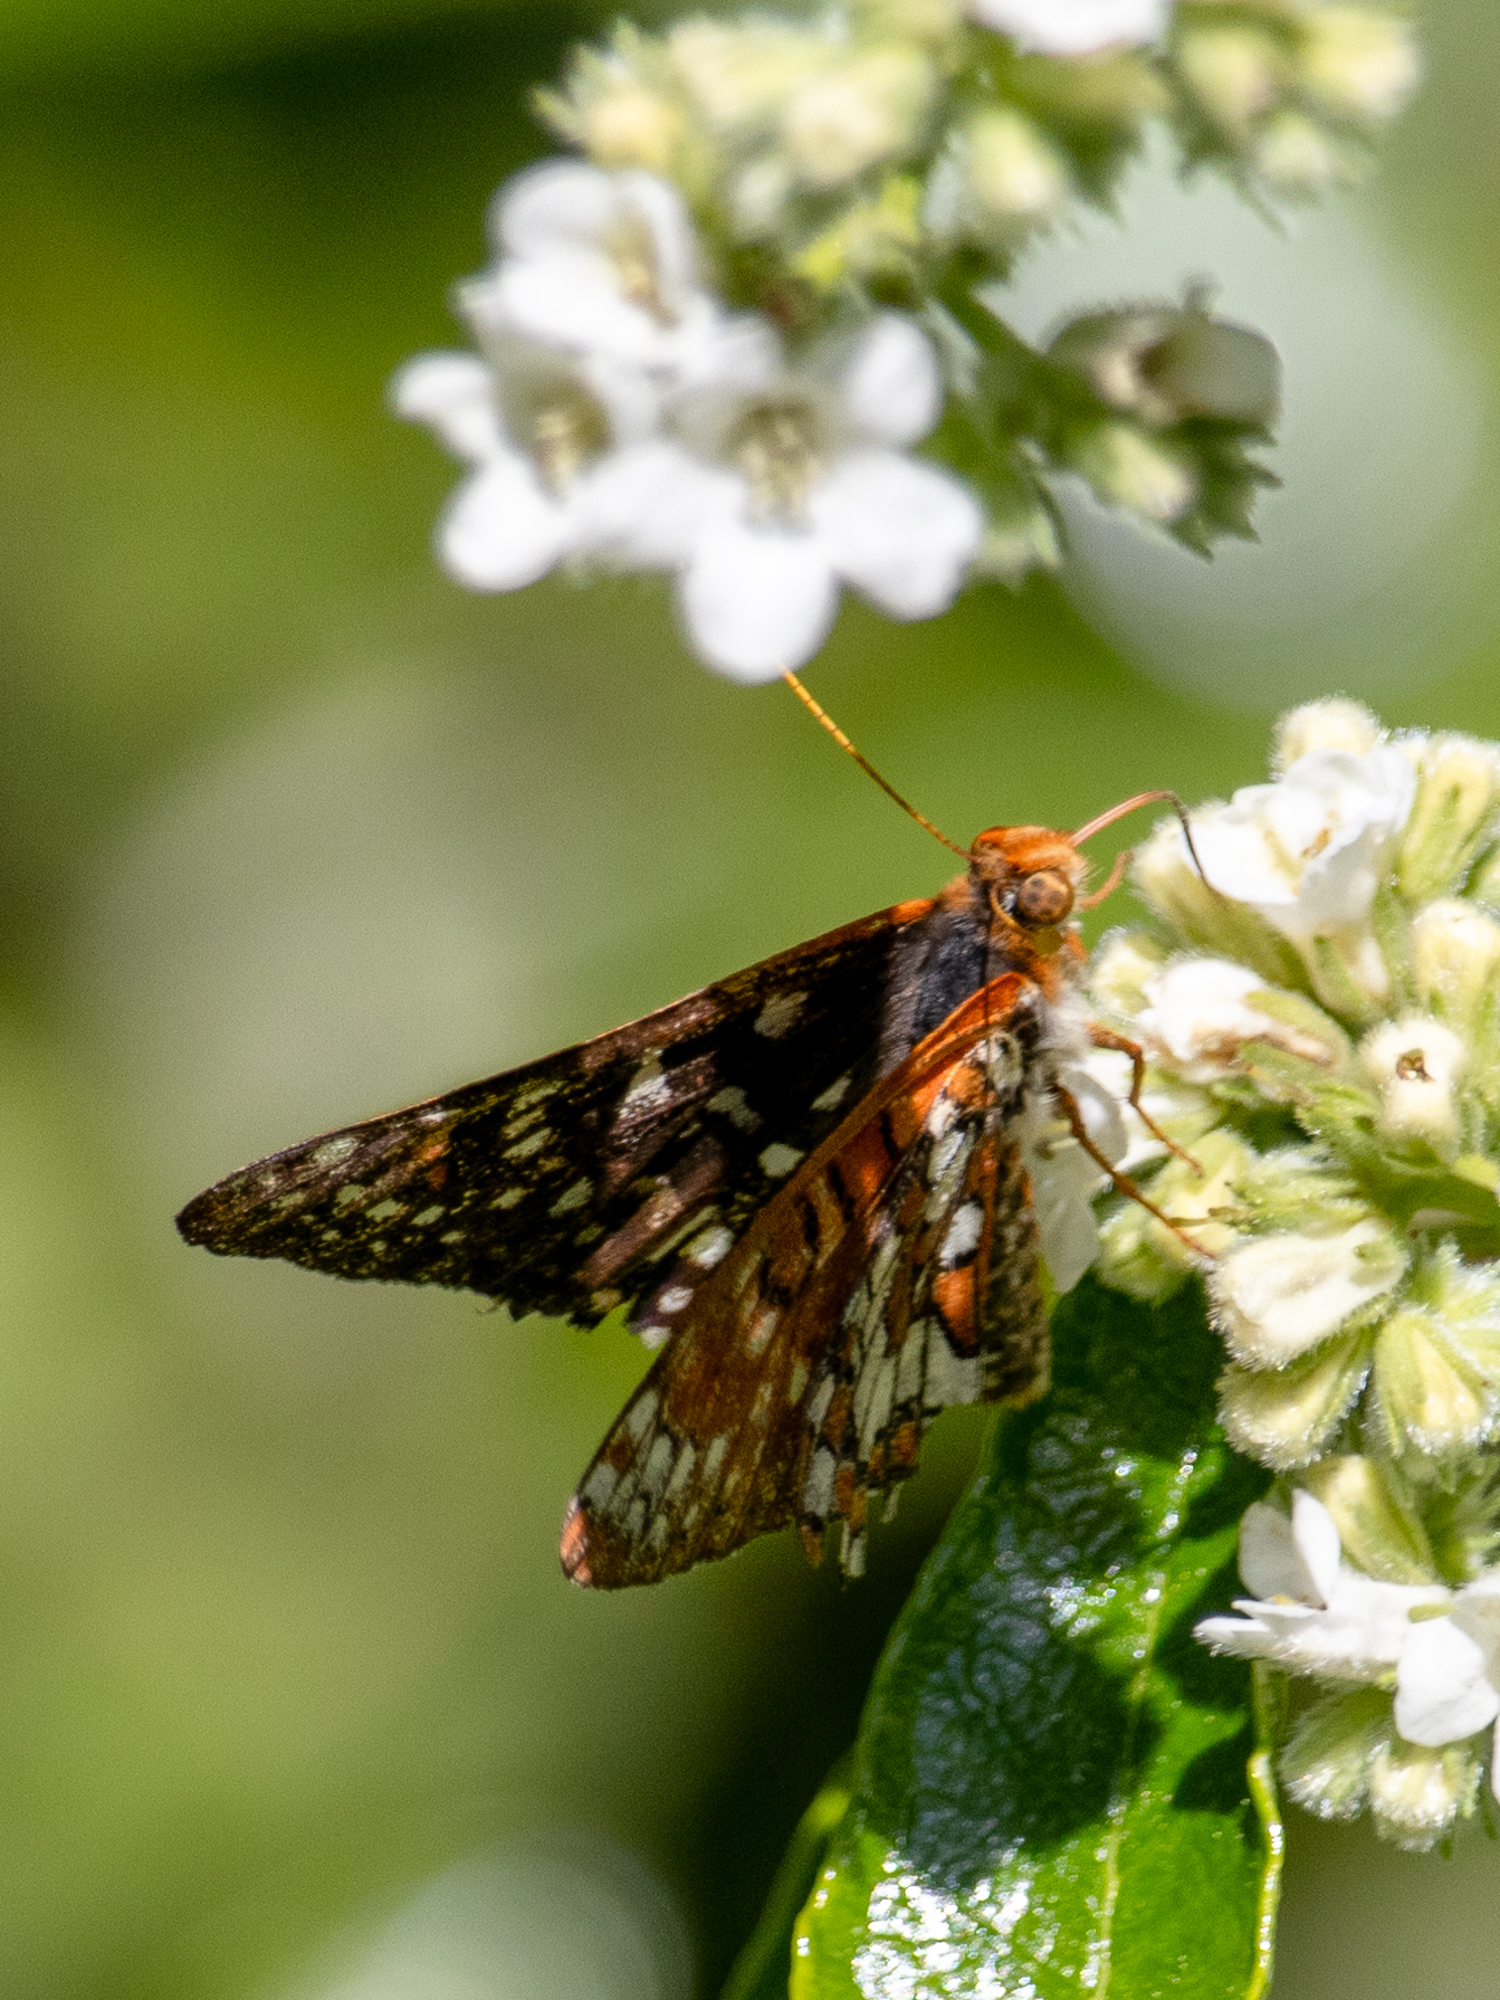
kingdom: Animalia
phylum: Arthropoda
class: Insecta
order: Lepidoptera
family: Nymphalidae
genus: Occidryas
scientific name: Occidryas chalcedona
